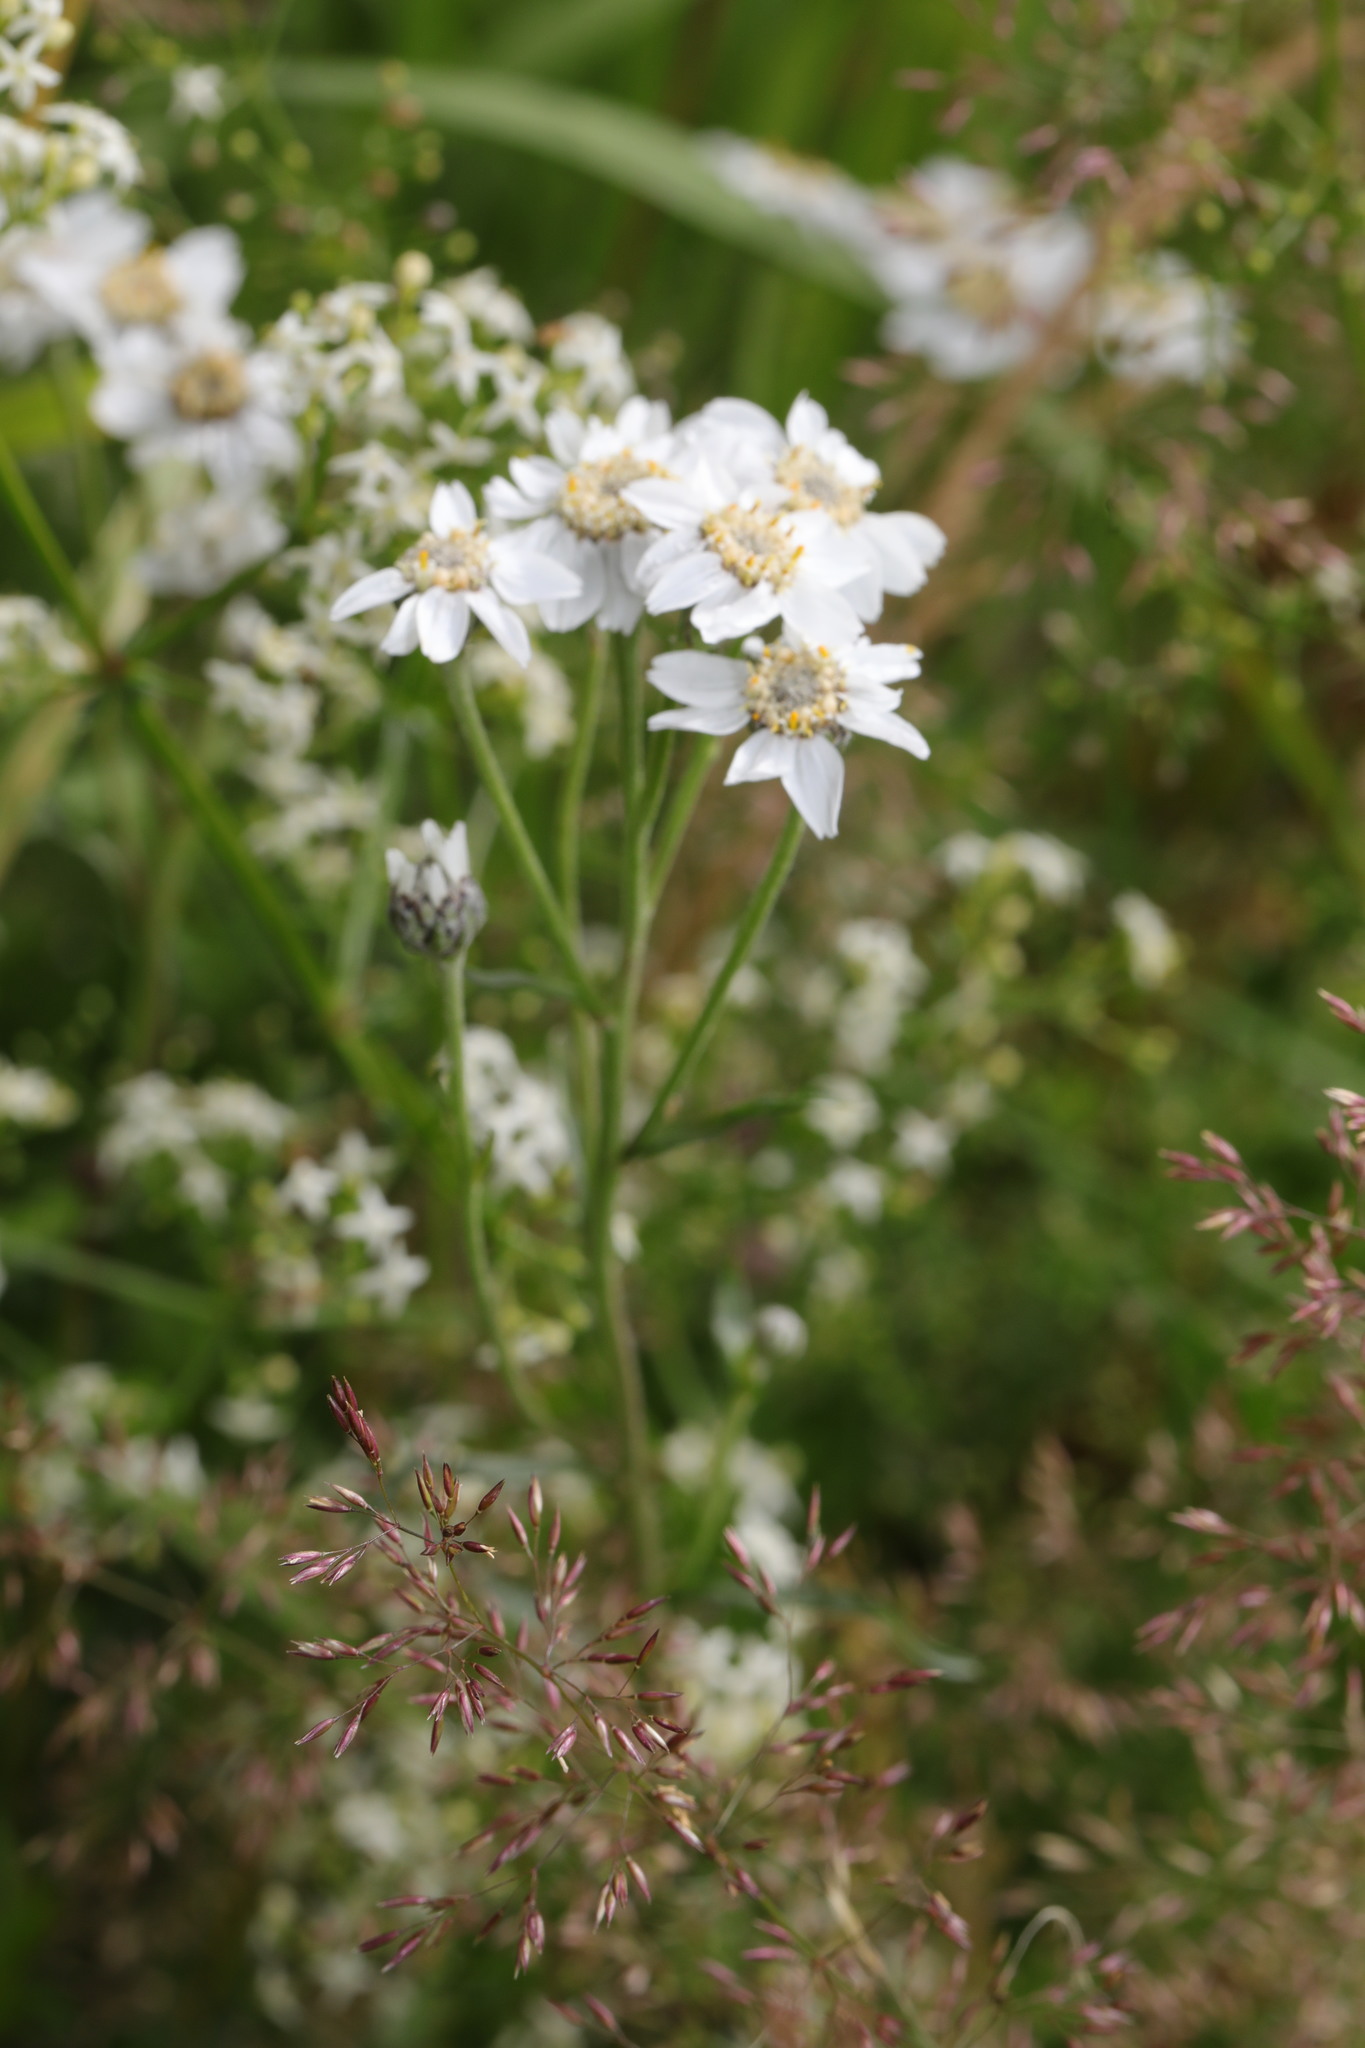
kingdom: Plantae
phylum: Tracheophyta
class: Magnoliopsida
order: Asterales
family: Asteraceae
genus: Achillea
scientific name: Achillea ptarmica
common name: Sneezeweed
